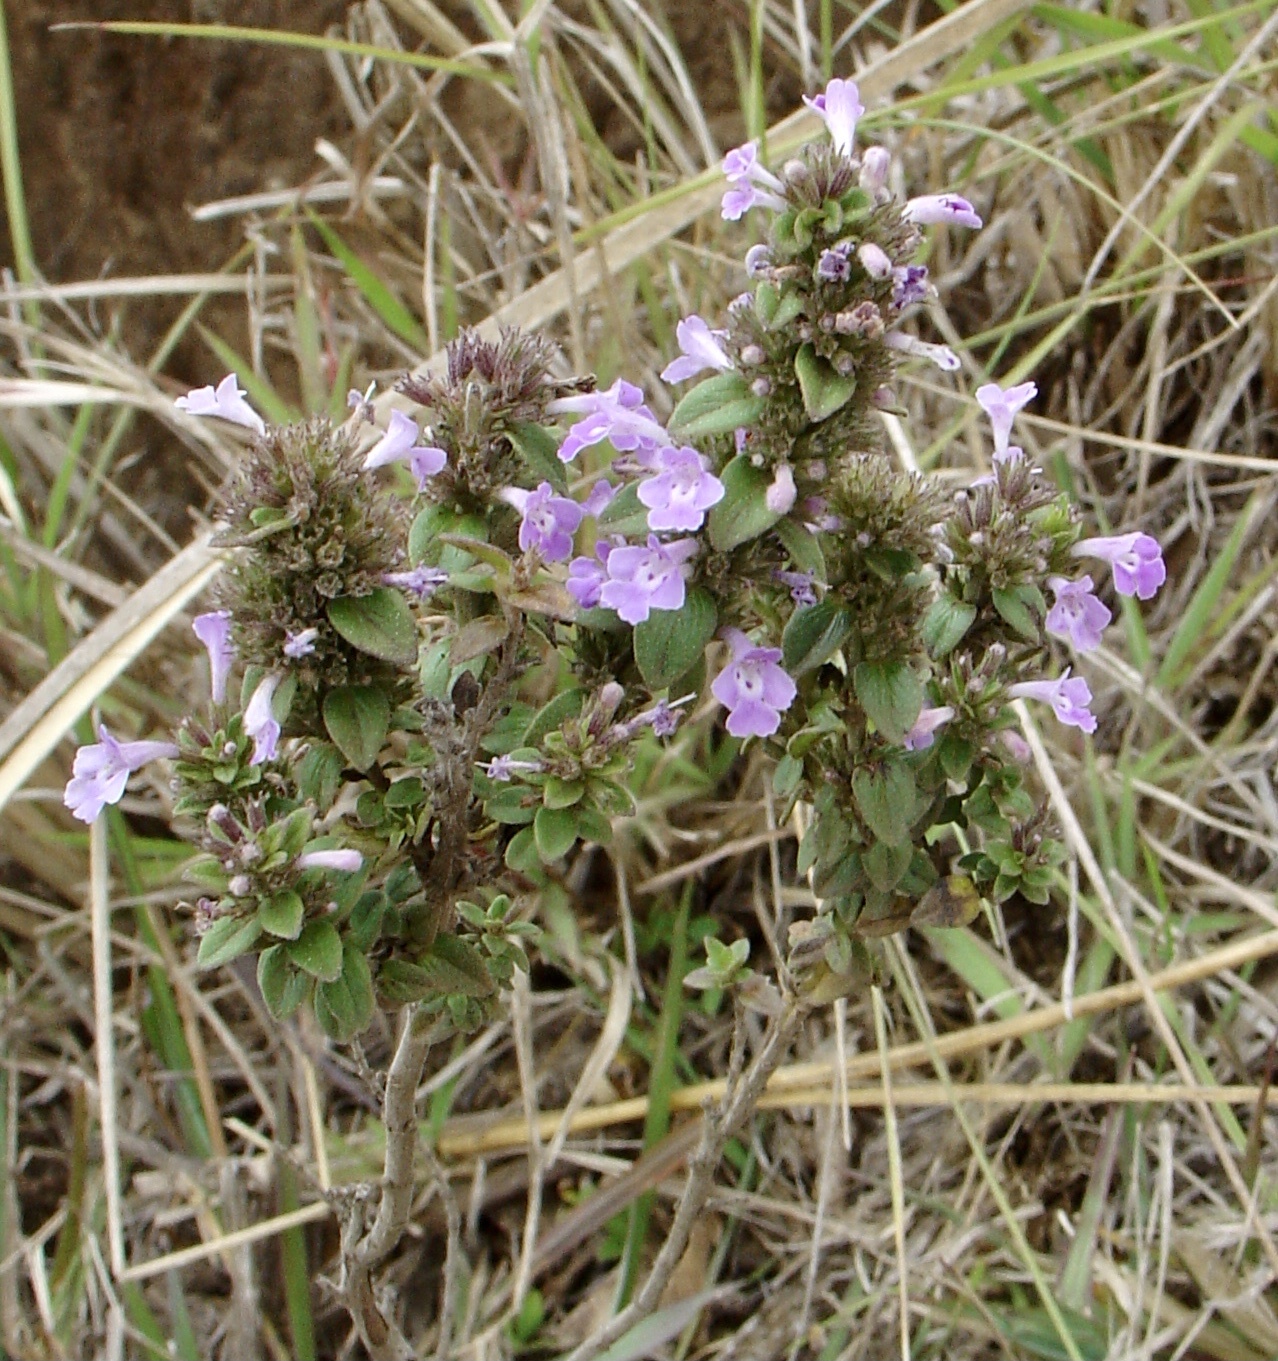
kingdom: Plantae
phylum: Tracheophyta
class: Magnoliopsida
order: Lamiales
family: Lamiaceae
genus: Micromeria
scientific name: Micromeria imbricata
